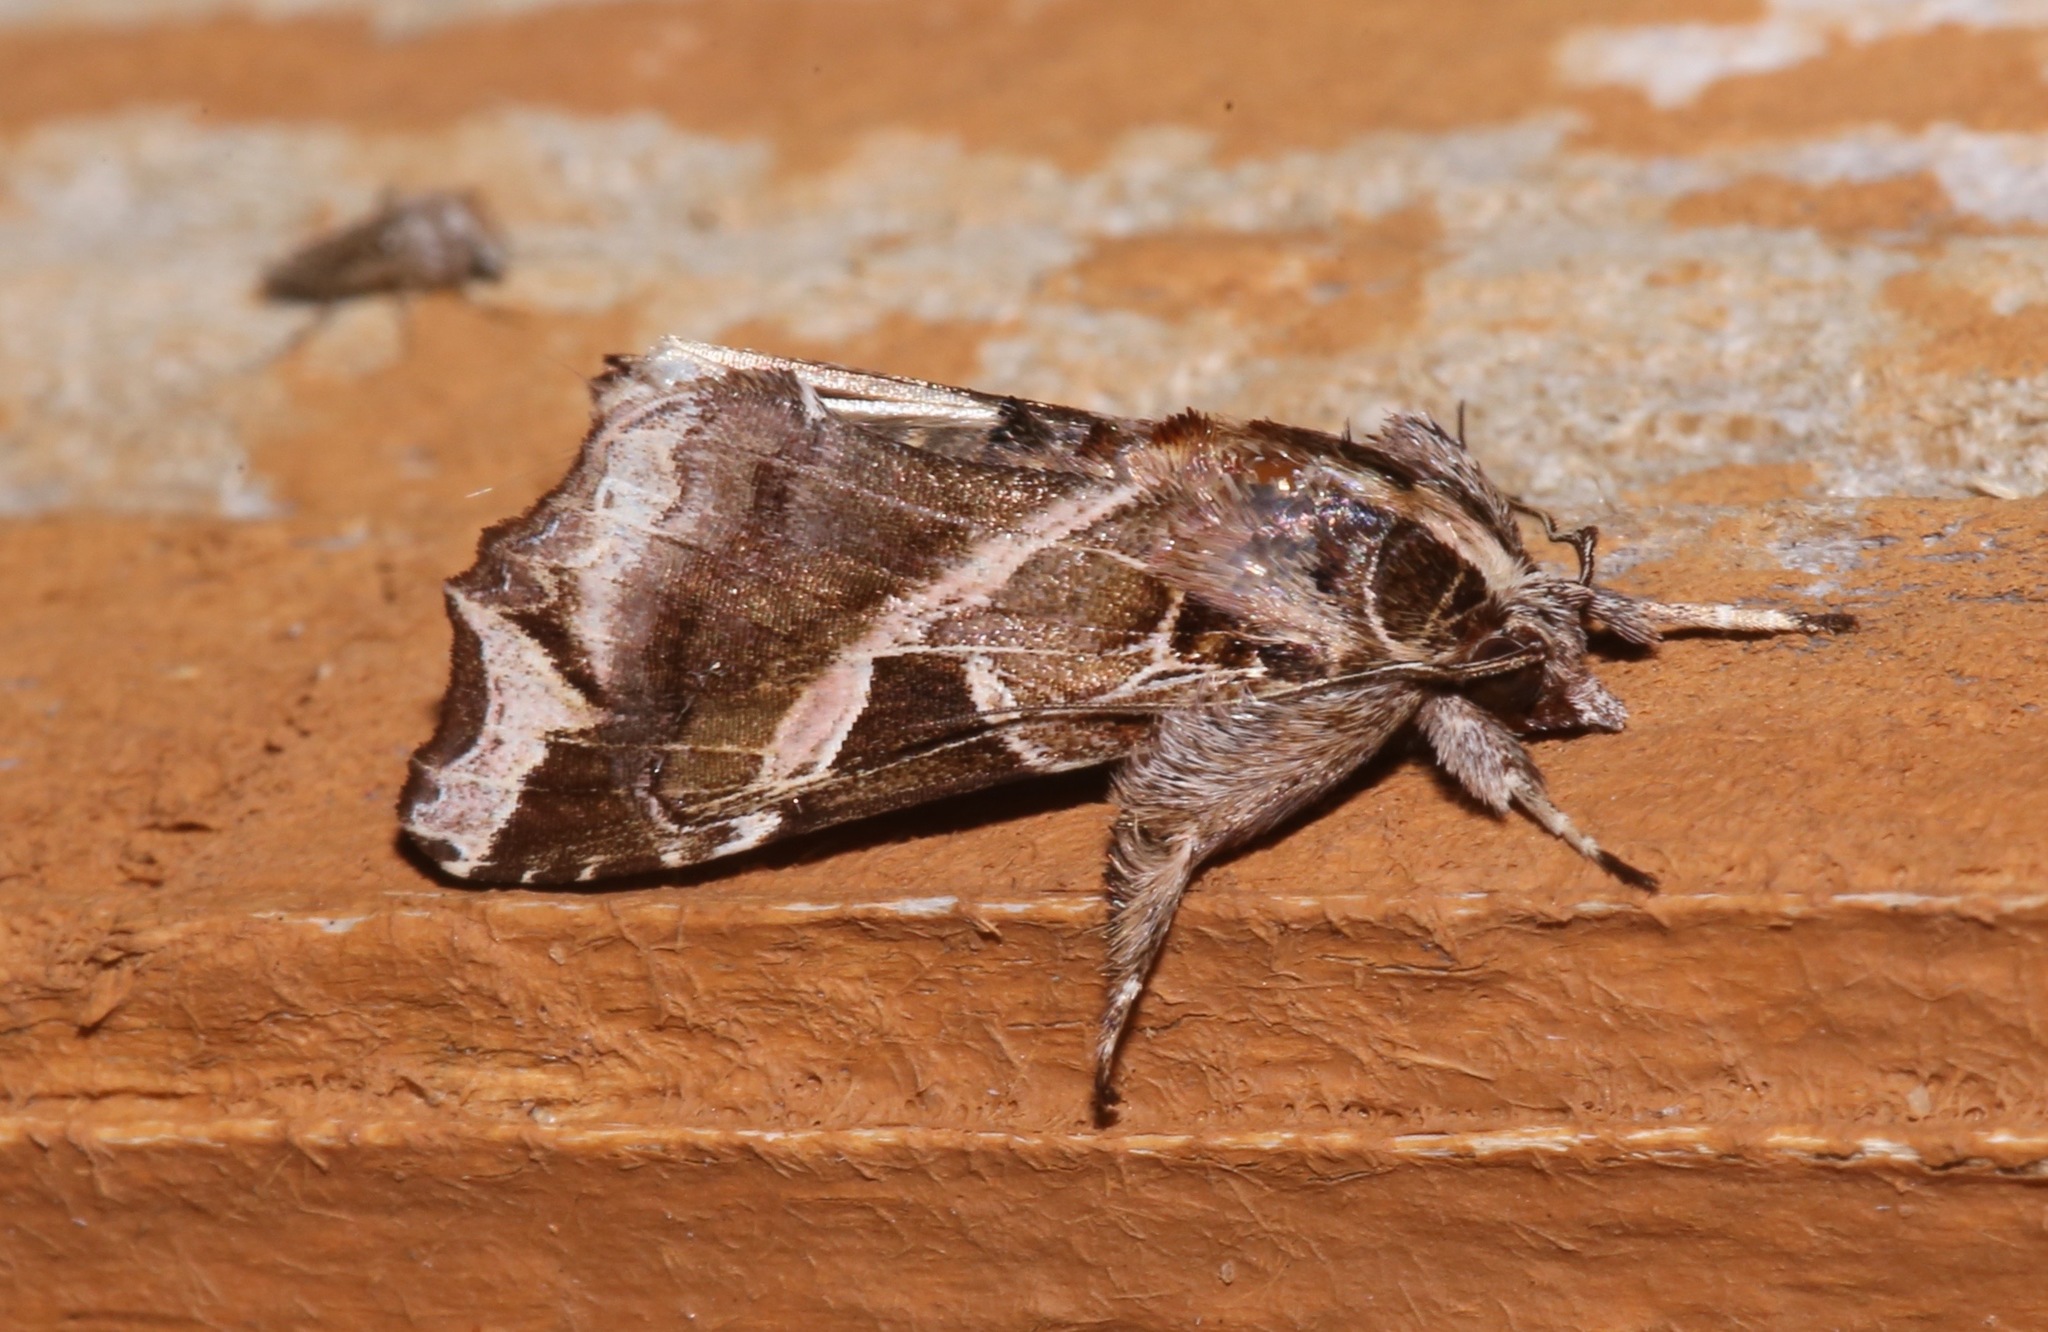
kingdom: Animalia
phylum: Arthropoda
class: Insecta
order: Lepidoptera
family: Noctuidae
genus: Callopistria
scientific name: Callopistria floridensis
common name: Florida fern moth
